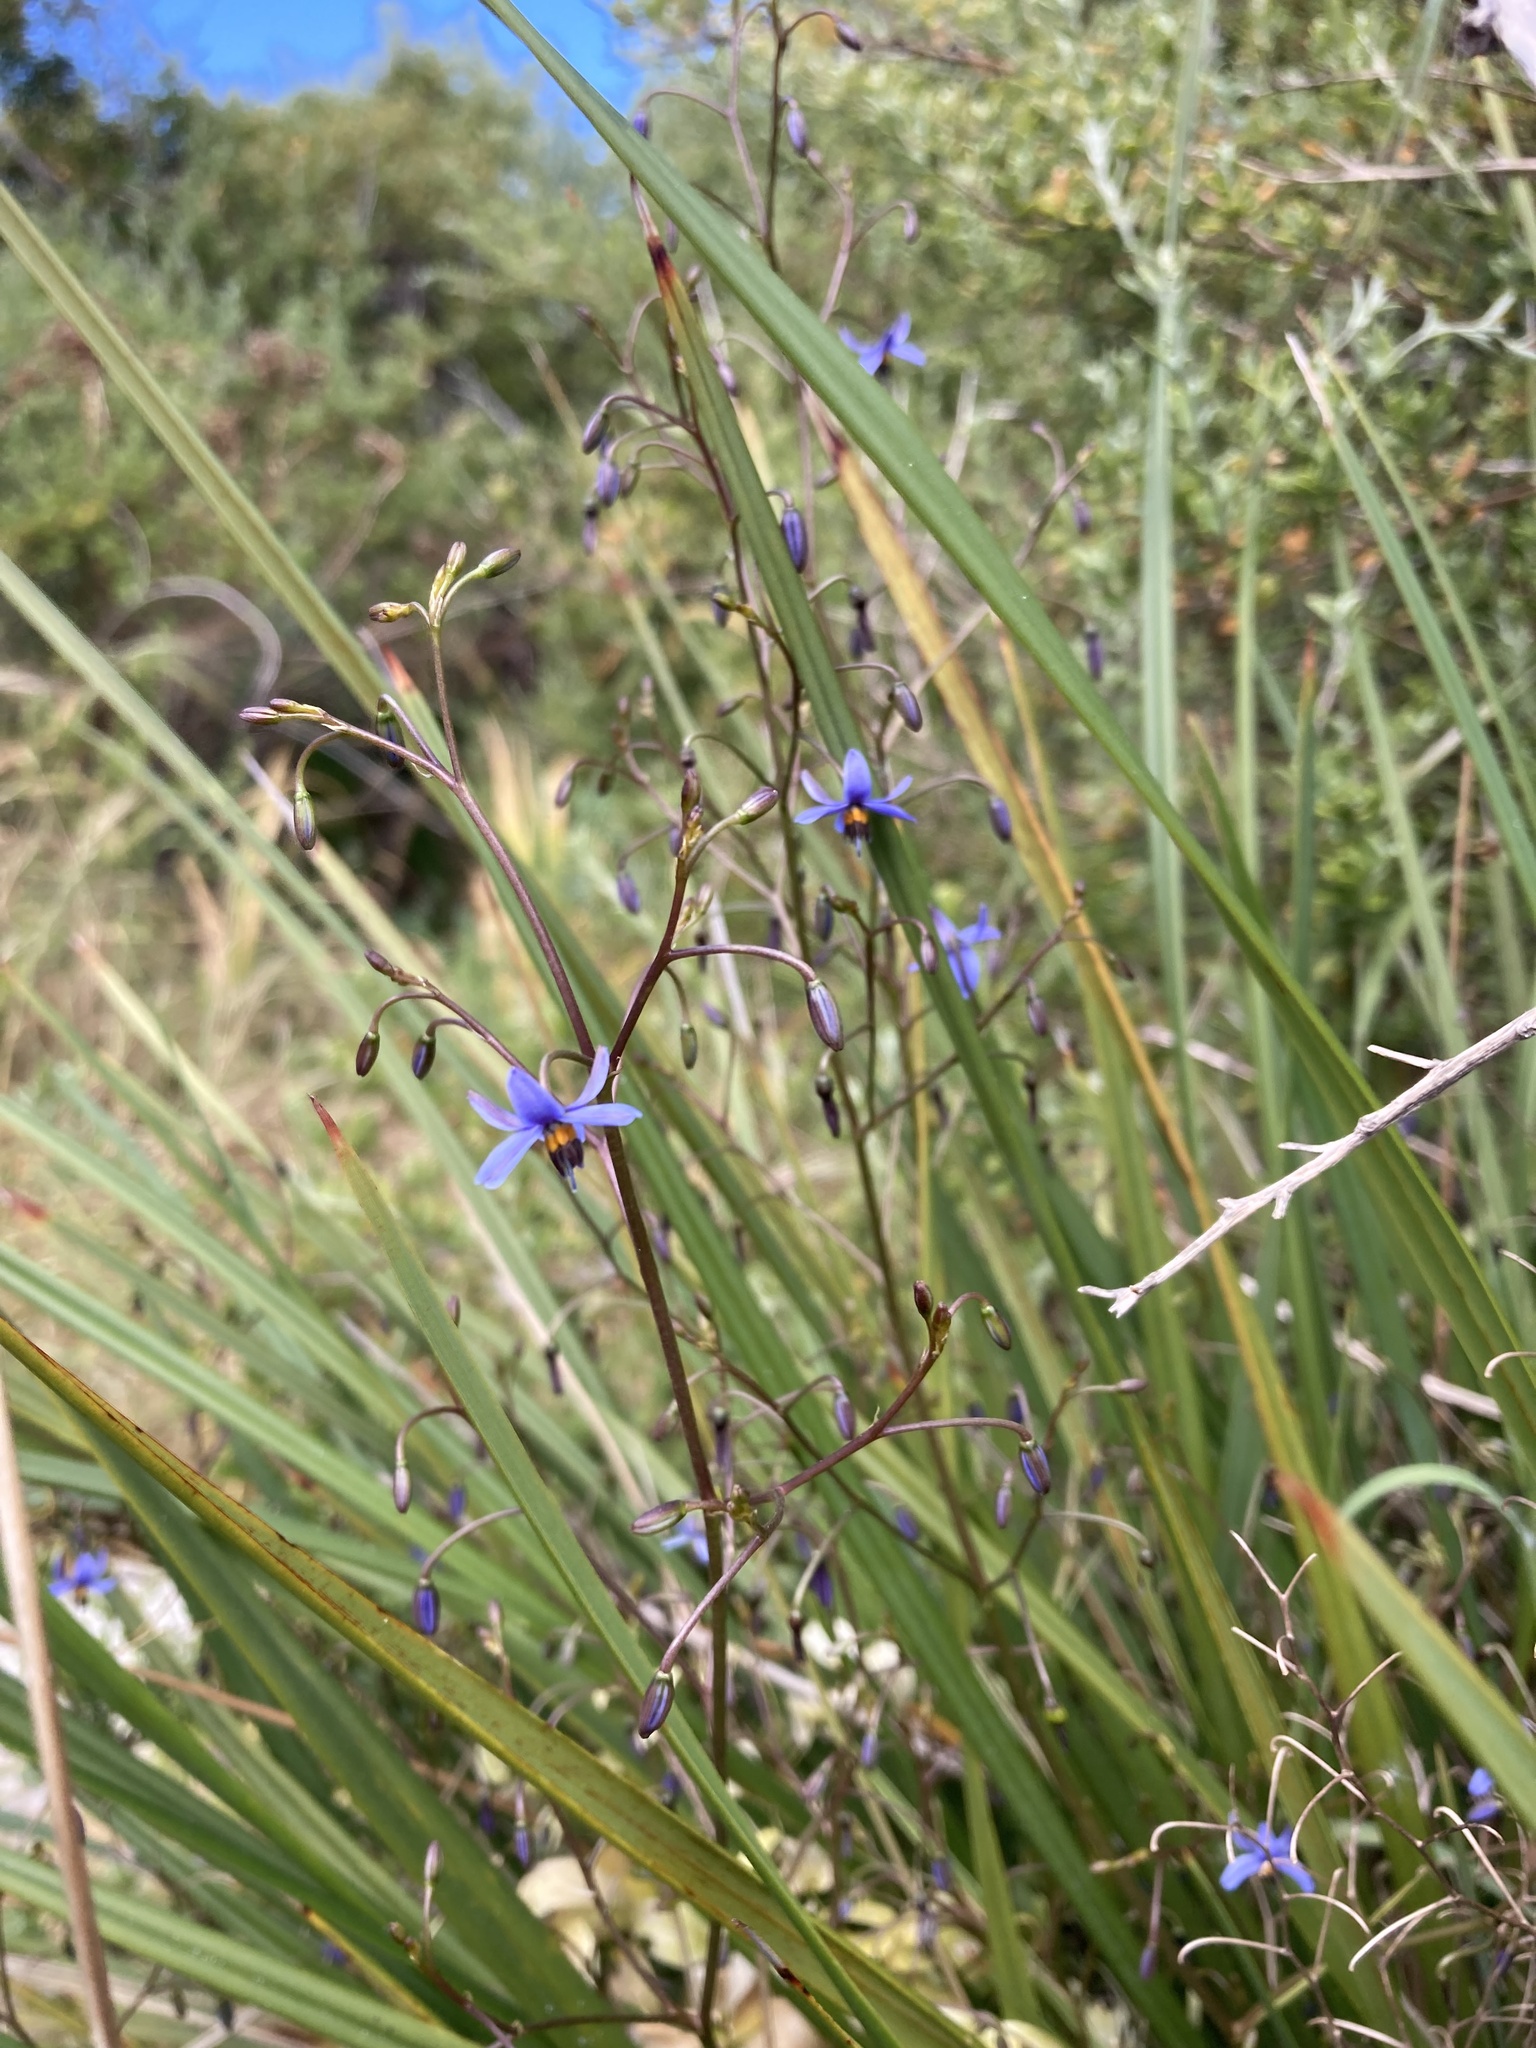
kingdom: Plantae
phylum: Tracheophyta
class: Liliopsida
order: Asparagales
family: Asphodelaceae
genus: Dianella
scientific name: Dianella brevicaulis
